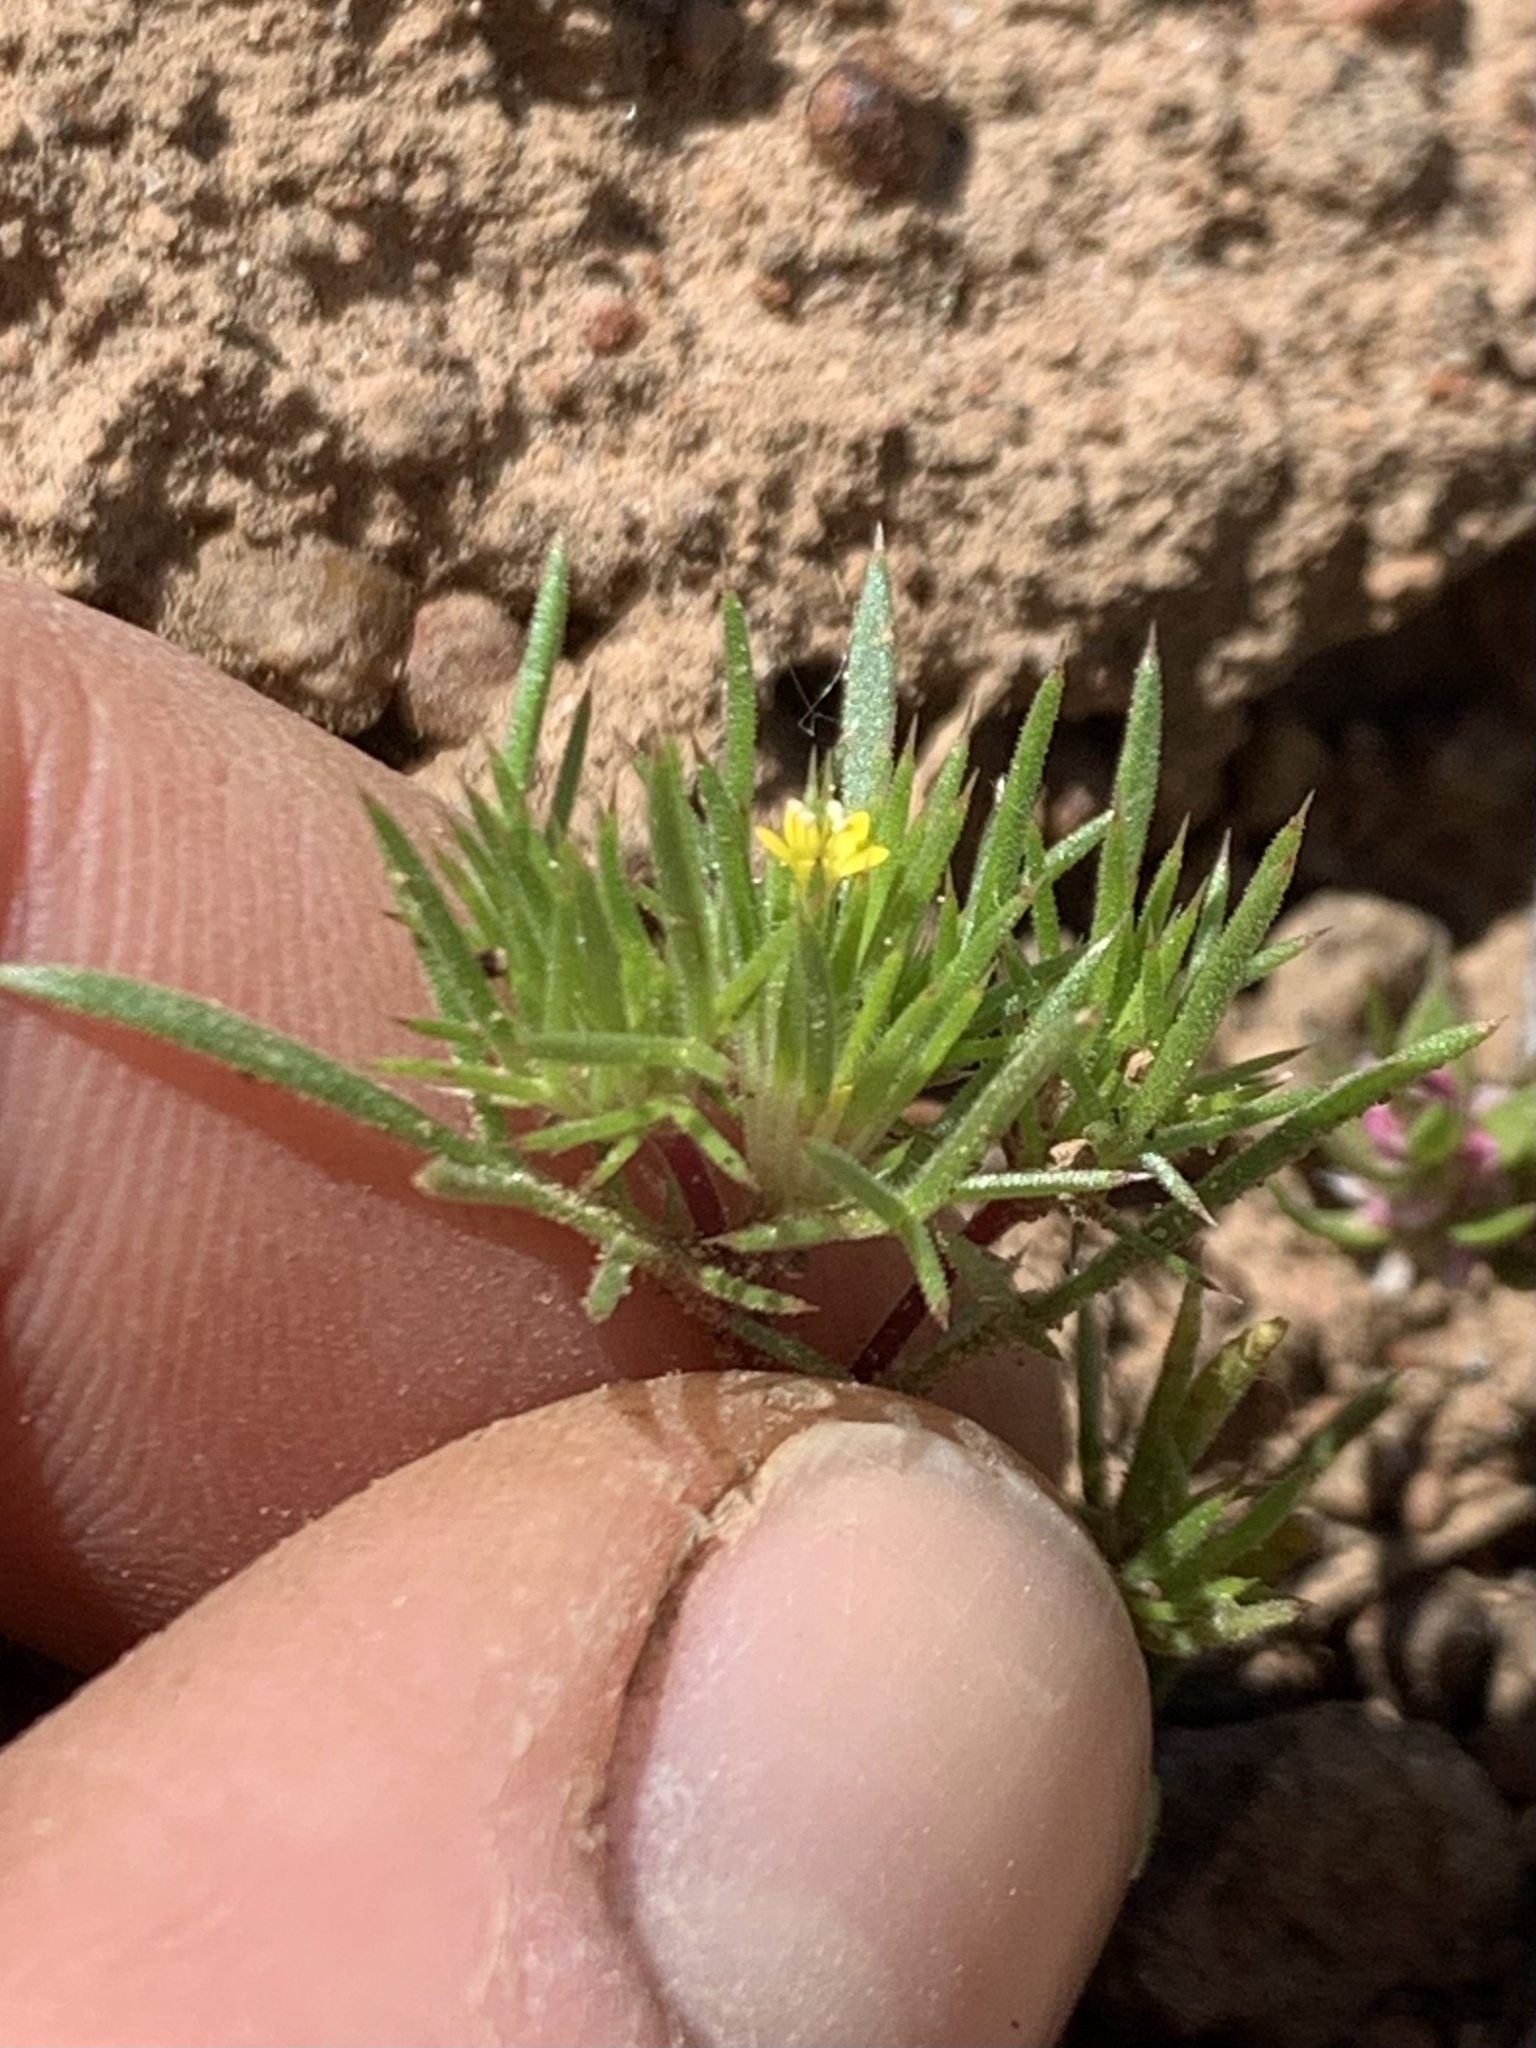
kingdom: Plantae
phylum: Tracheophyta
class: Magnoliopsida
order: Ericales
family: Polemoniaceae
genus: Navarretia
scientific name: Navarretia breweri
